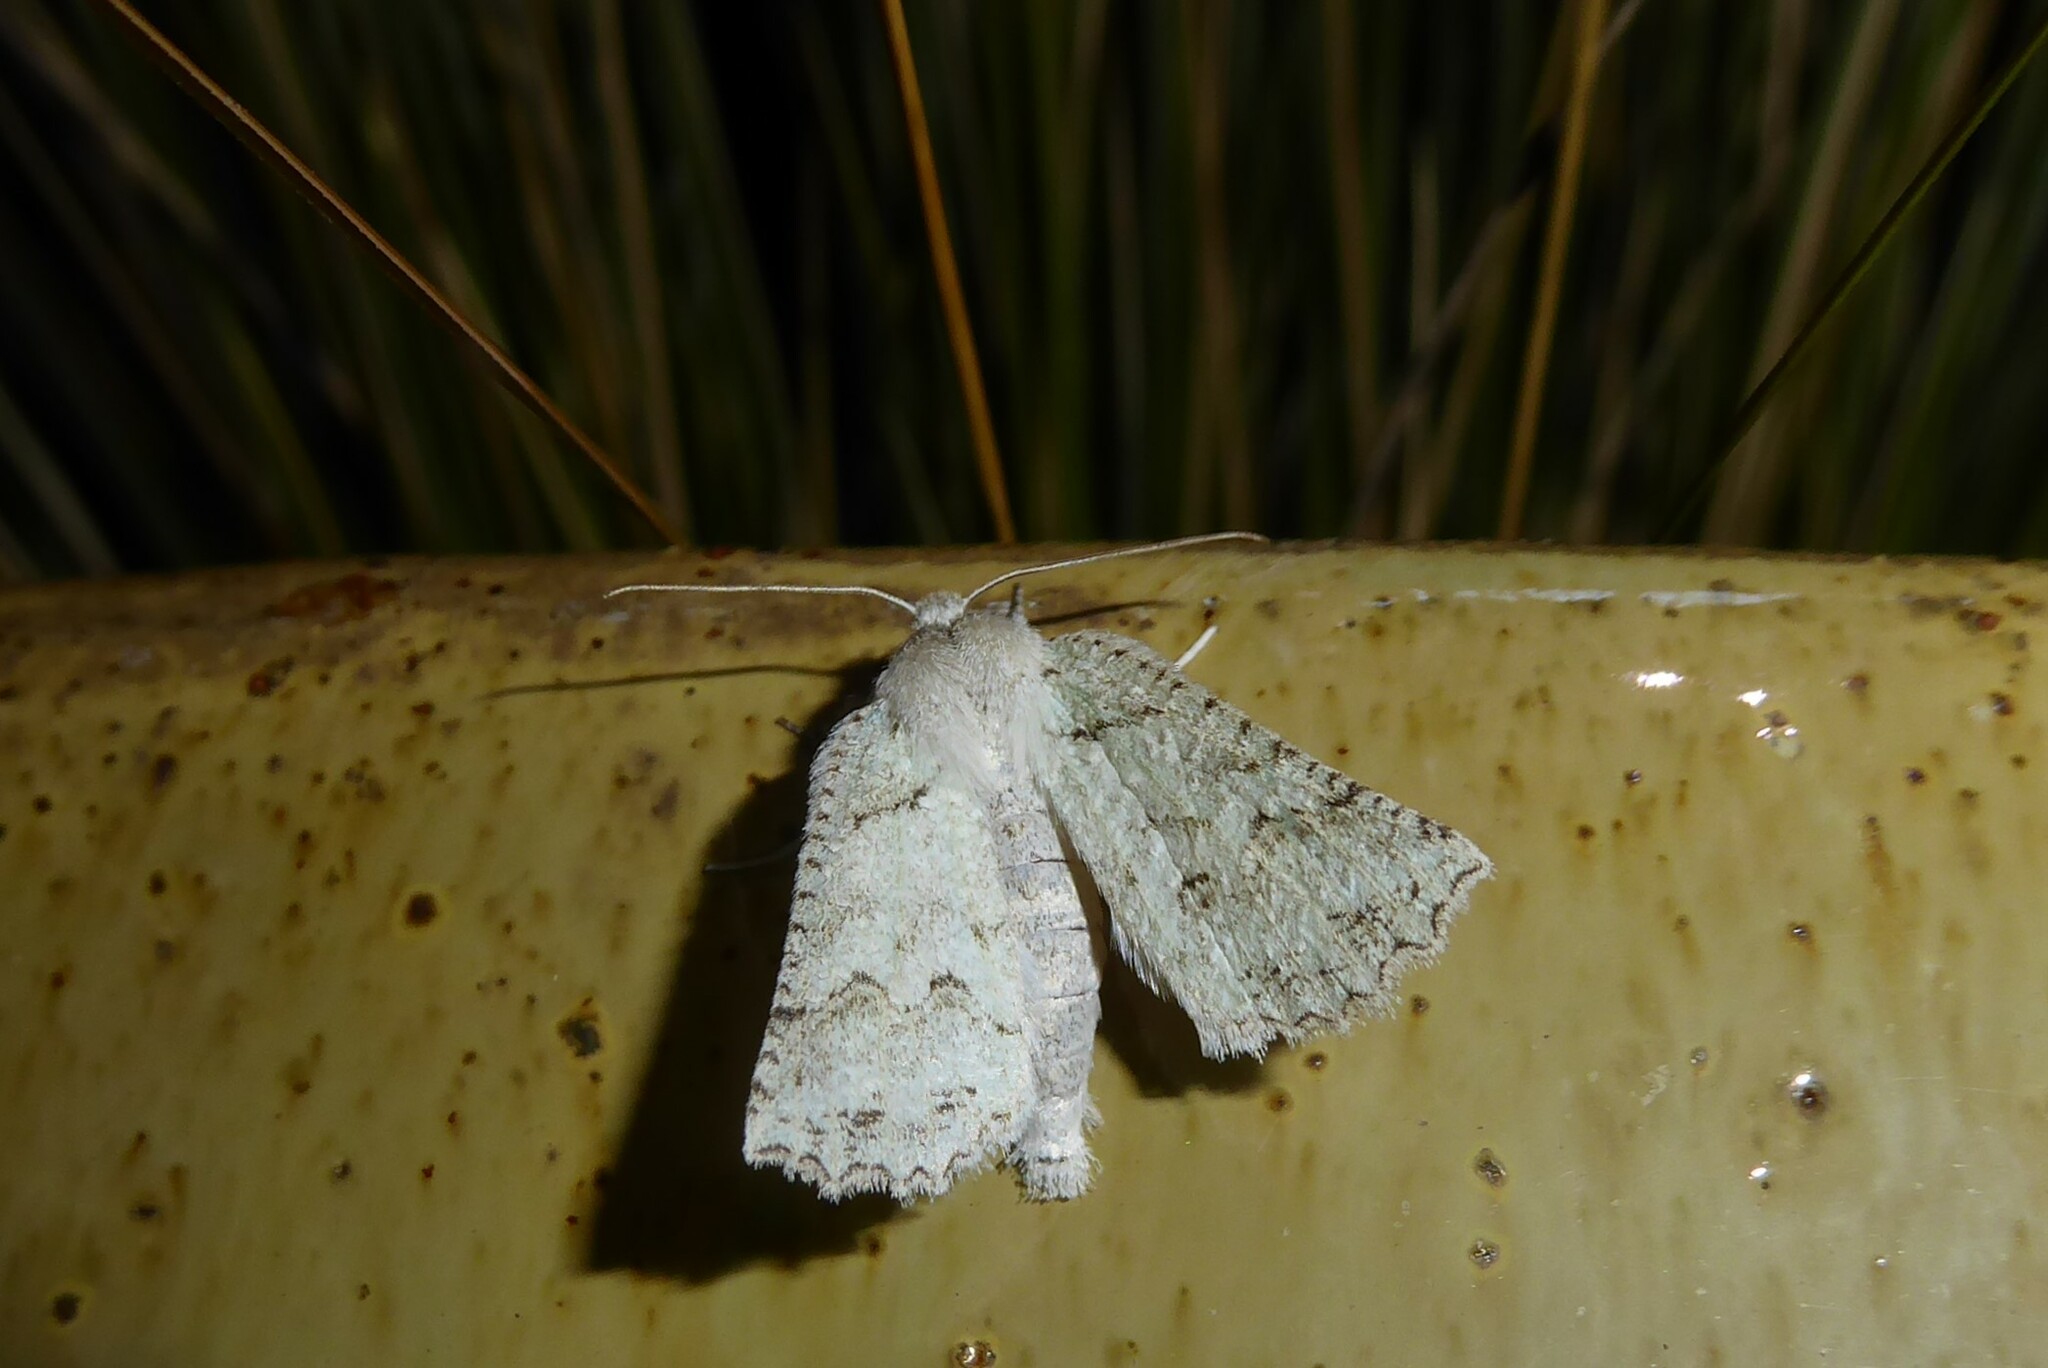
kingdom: Animalia
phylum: Arthropoda
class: Insecta
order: Lepidoptera
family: Geometridae
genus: Declana
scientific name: Declana niveata
